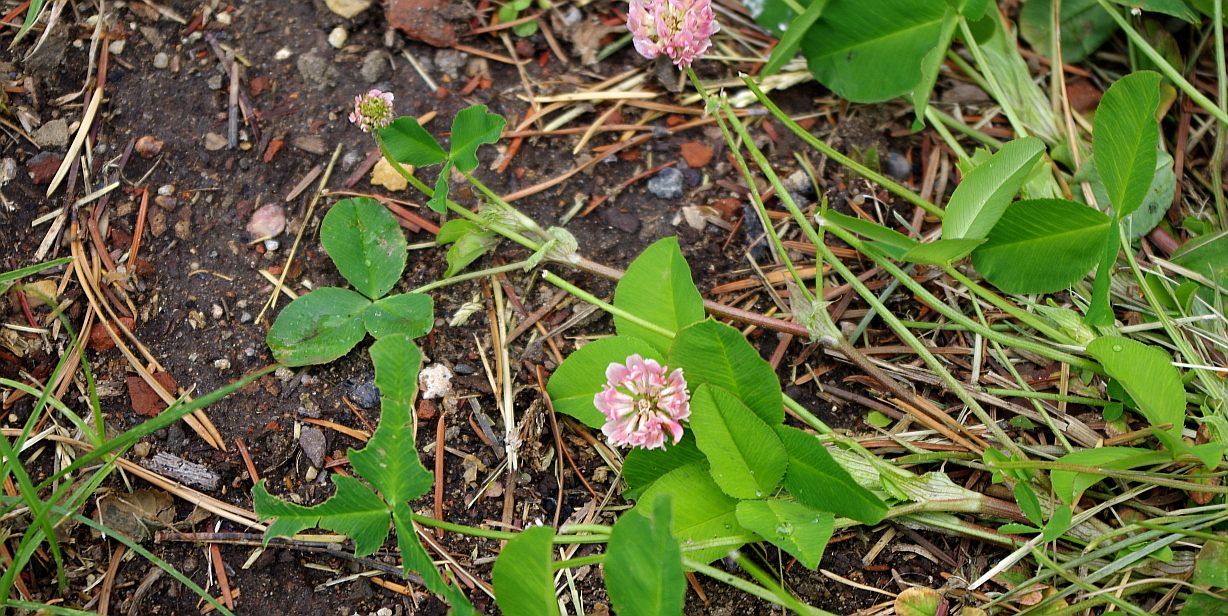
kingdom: Plantae
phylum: Tracheophyta
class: Magnoliopsida
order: Fabales
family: Fabaceae
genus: Trifolium
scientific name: Trifolium hybridum
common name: Alsike clover
